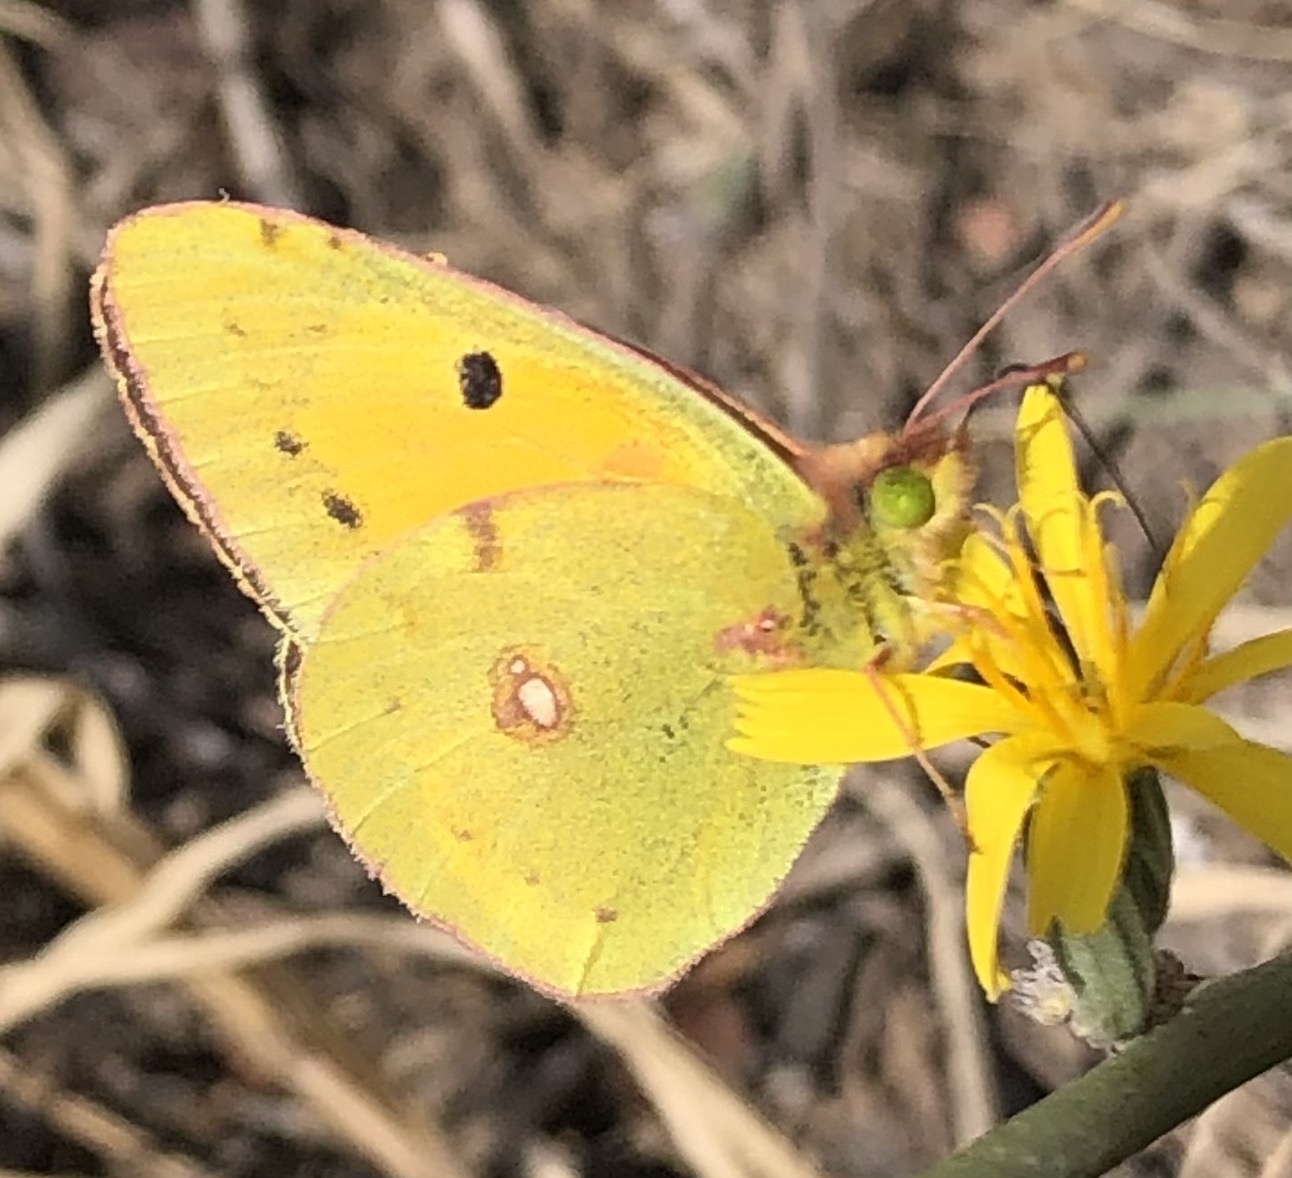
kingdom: Animalia
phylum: Arthropoda
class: Insecta
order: Lepidoptera
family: Pieridae
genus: Colias
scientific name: Colias croceus
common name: Clouded yellow
